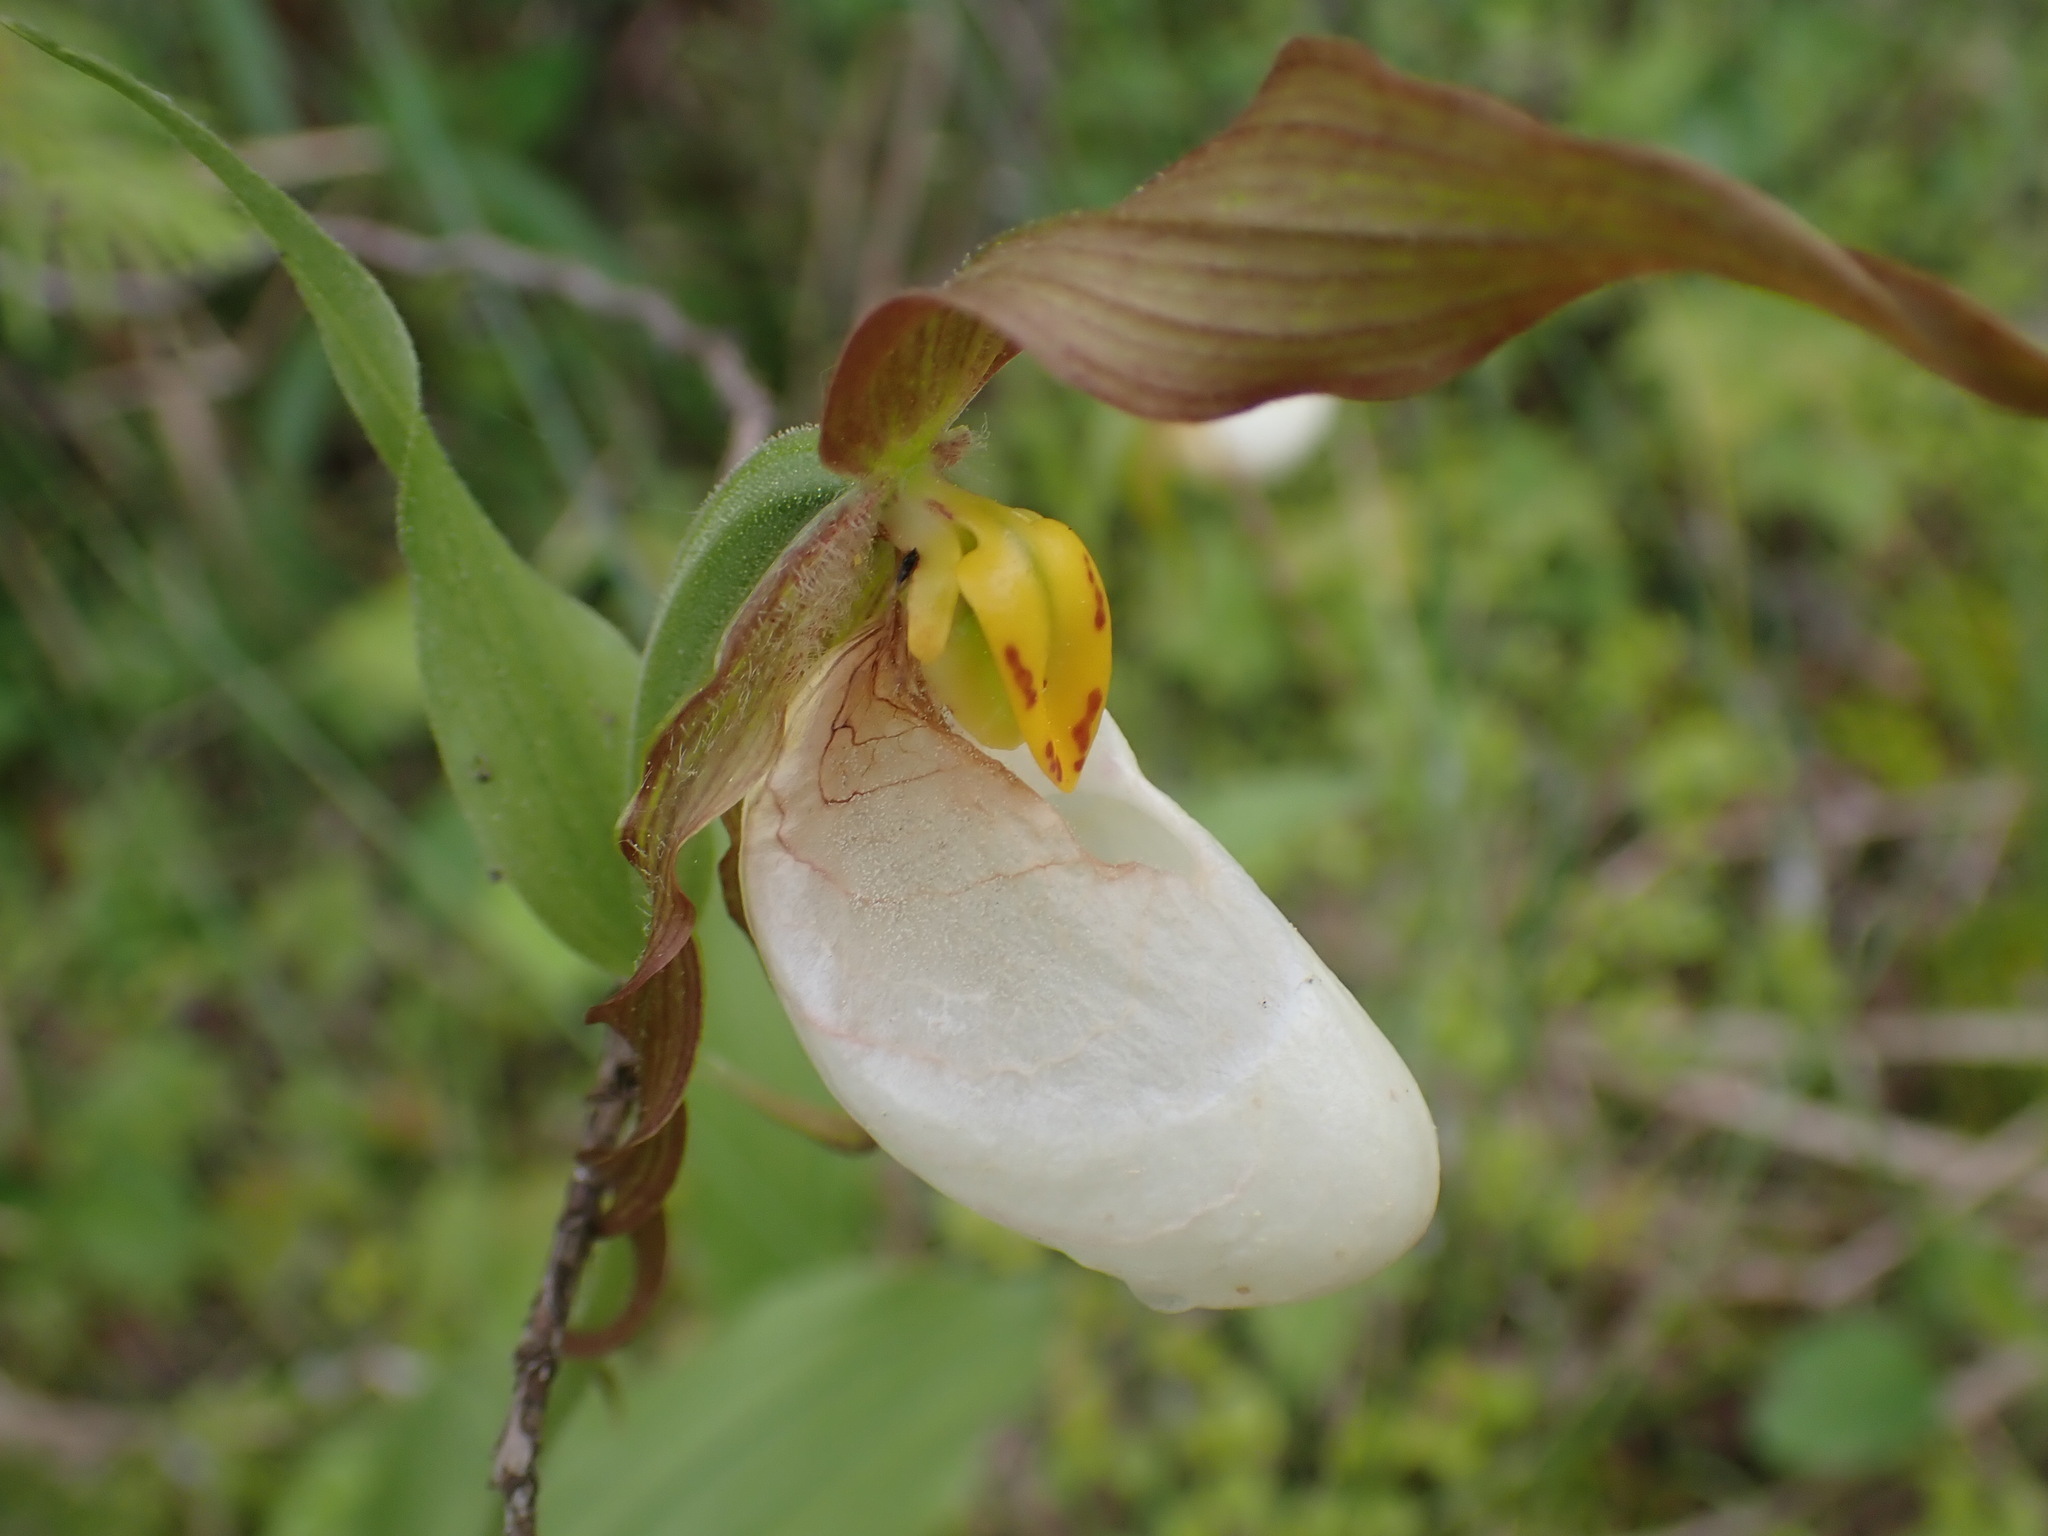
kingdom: Plantae
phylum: Tracheophyta
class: Liliopsida
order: Asparagales
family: Orchidaceae
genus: Cypripedium
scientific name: Cypripedium montanum
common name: Mountain lady's-slipper
